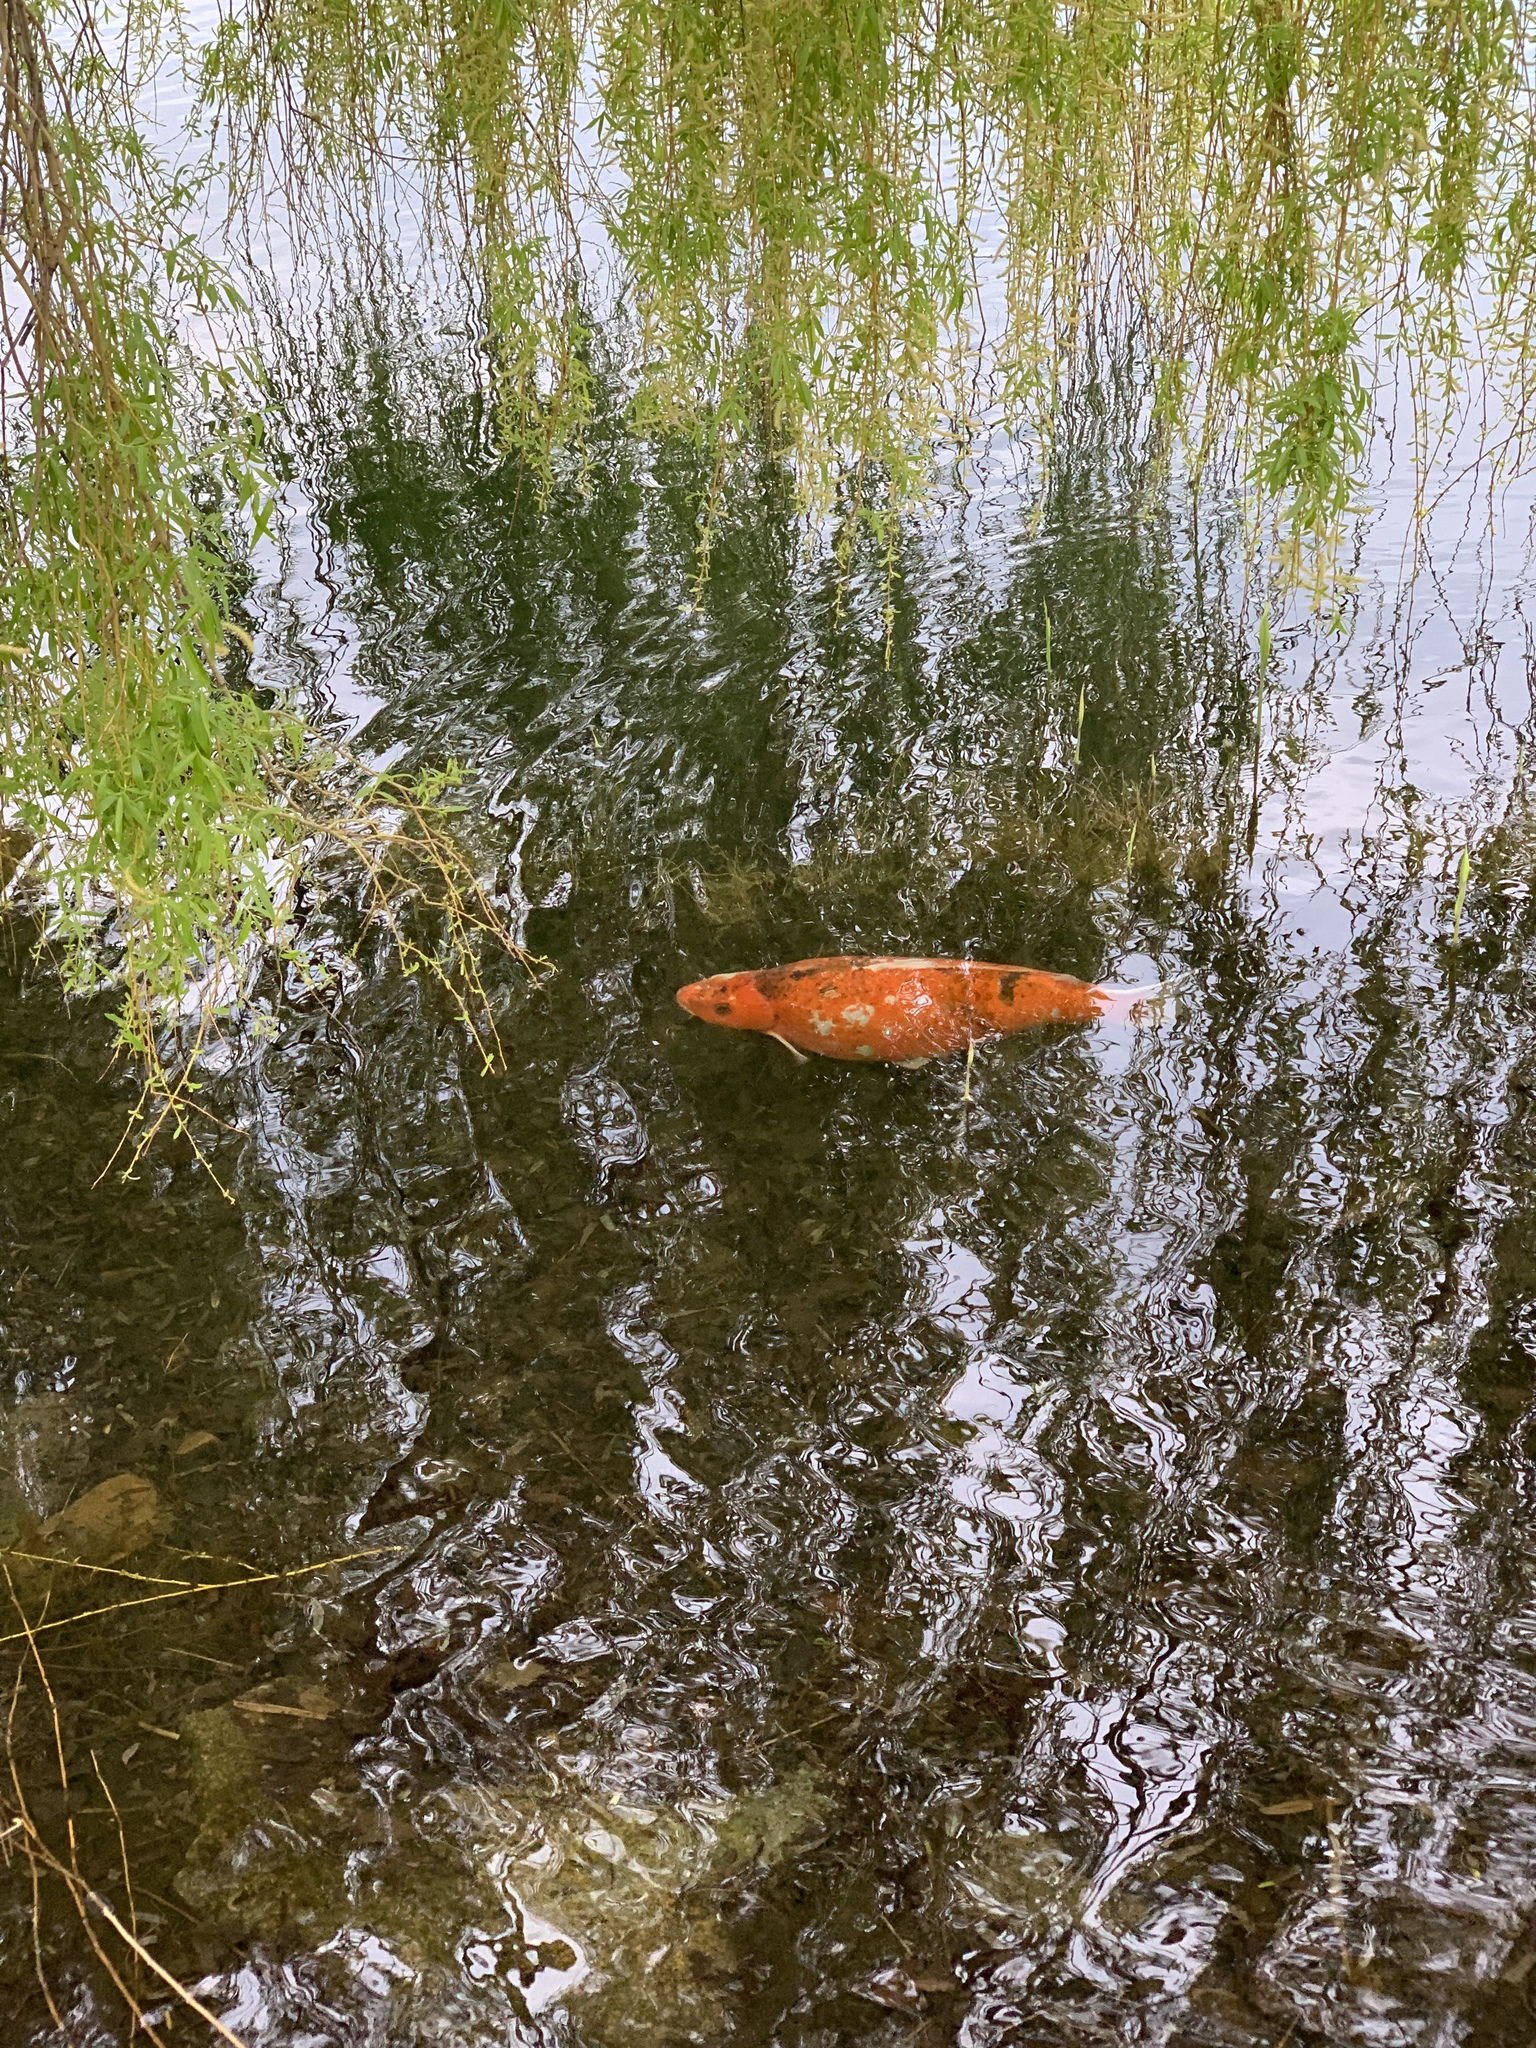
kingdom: Animalia
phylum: Chordata
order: Cypriniformes
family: Cyprinidae
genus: Cyprinus
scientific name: Cyprinus rubrofuscus
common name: Koi
